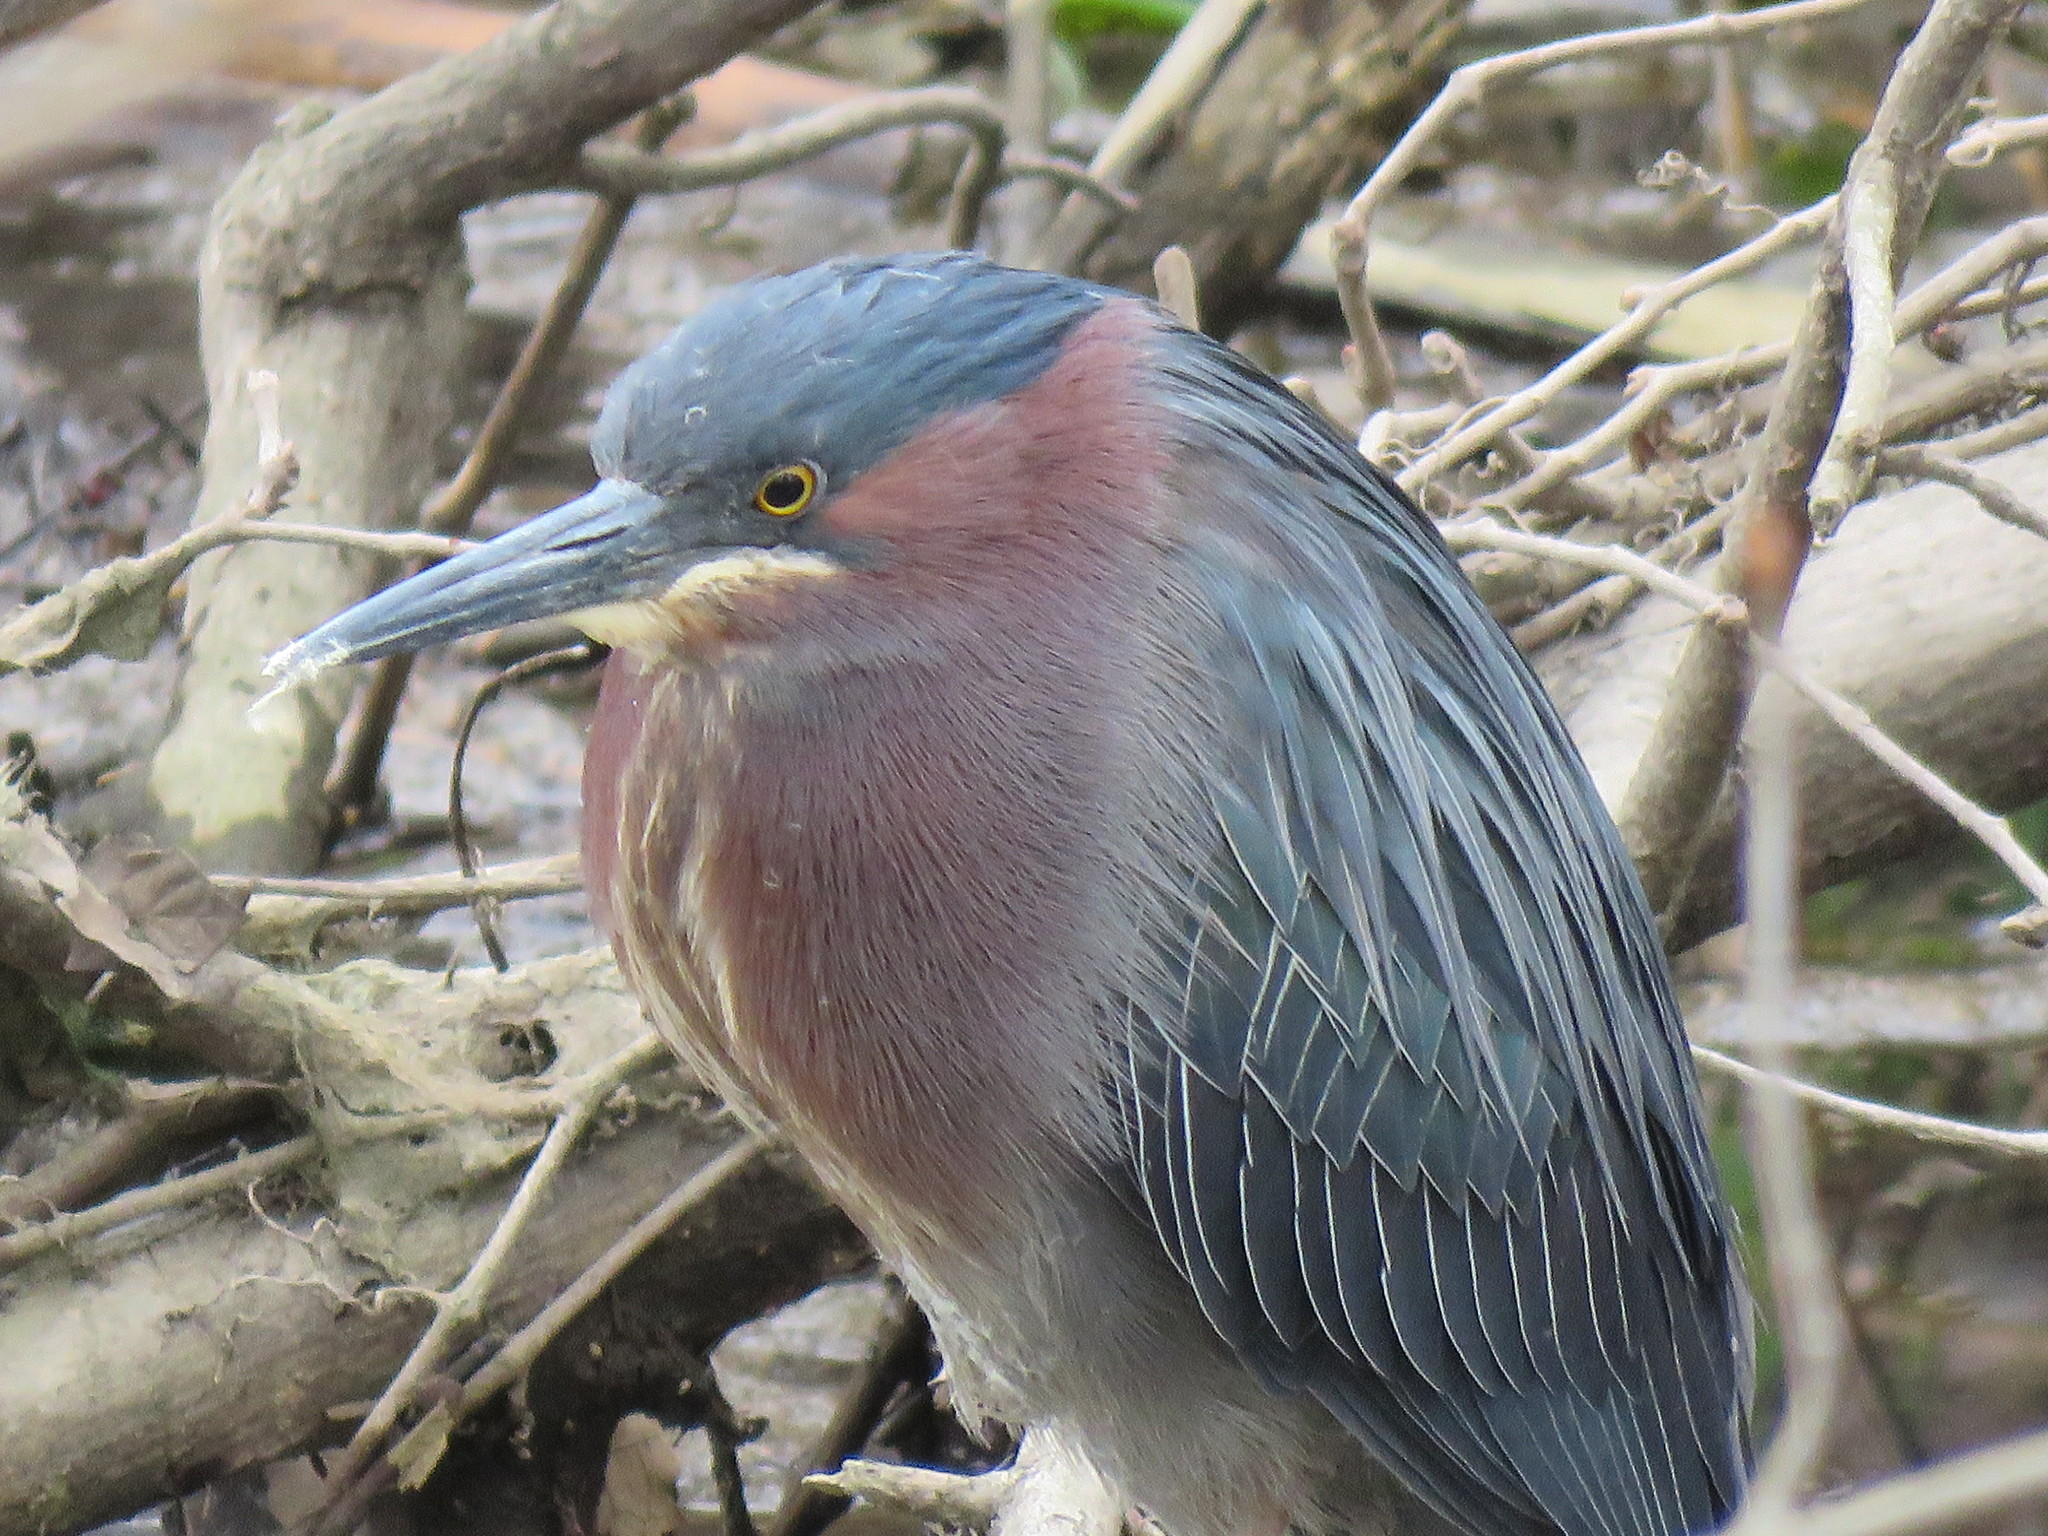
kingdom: Animalia
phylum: Chordata
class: Aves
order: Pelecaniformes
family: Ardeidae
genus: Butorides
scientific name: Butorides virescens
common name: Green heron
